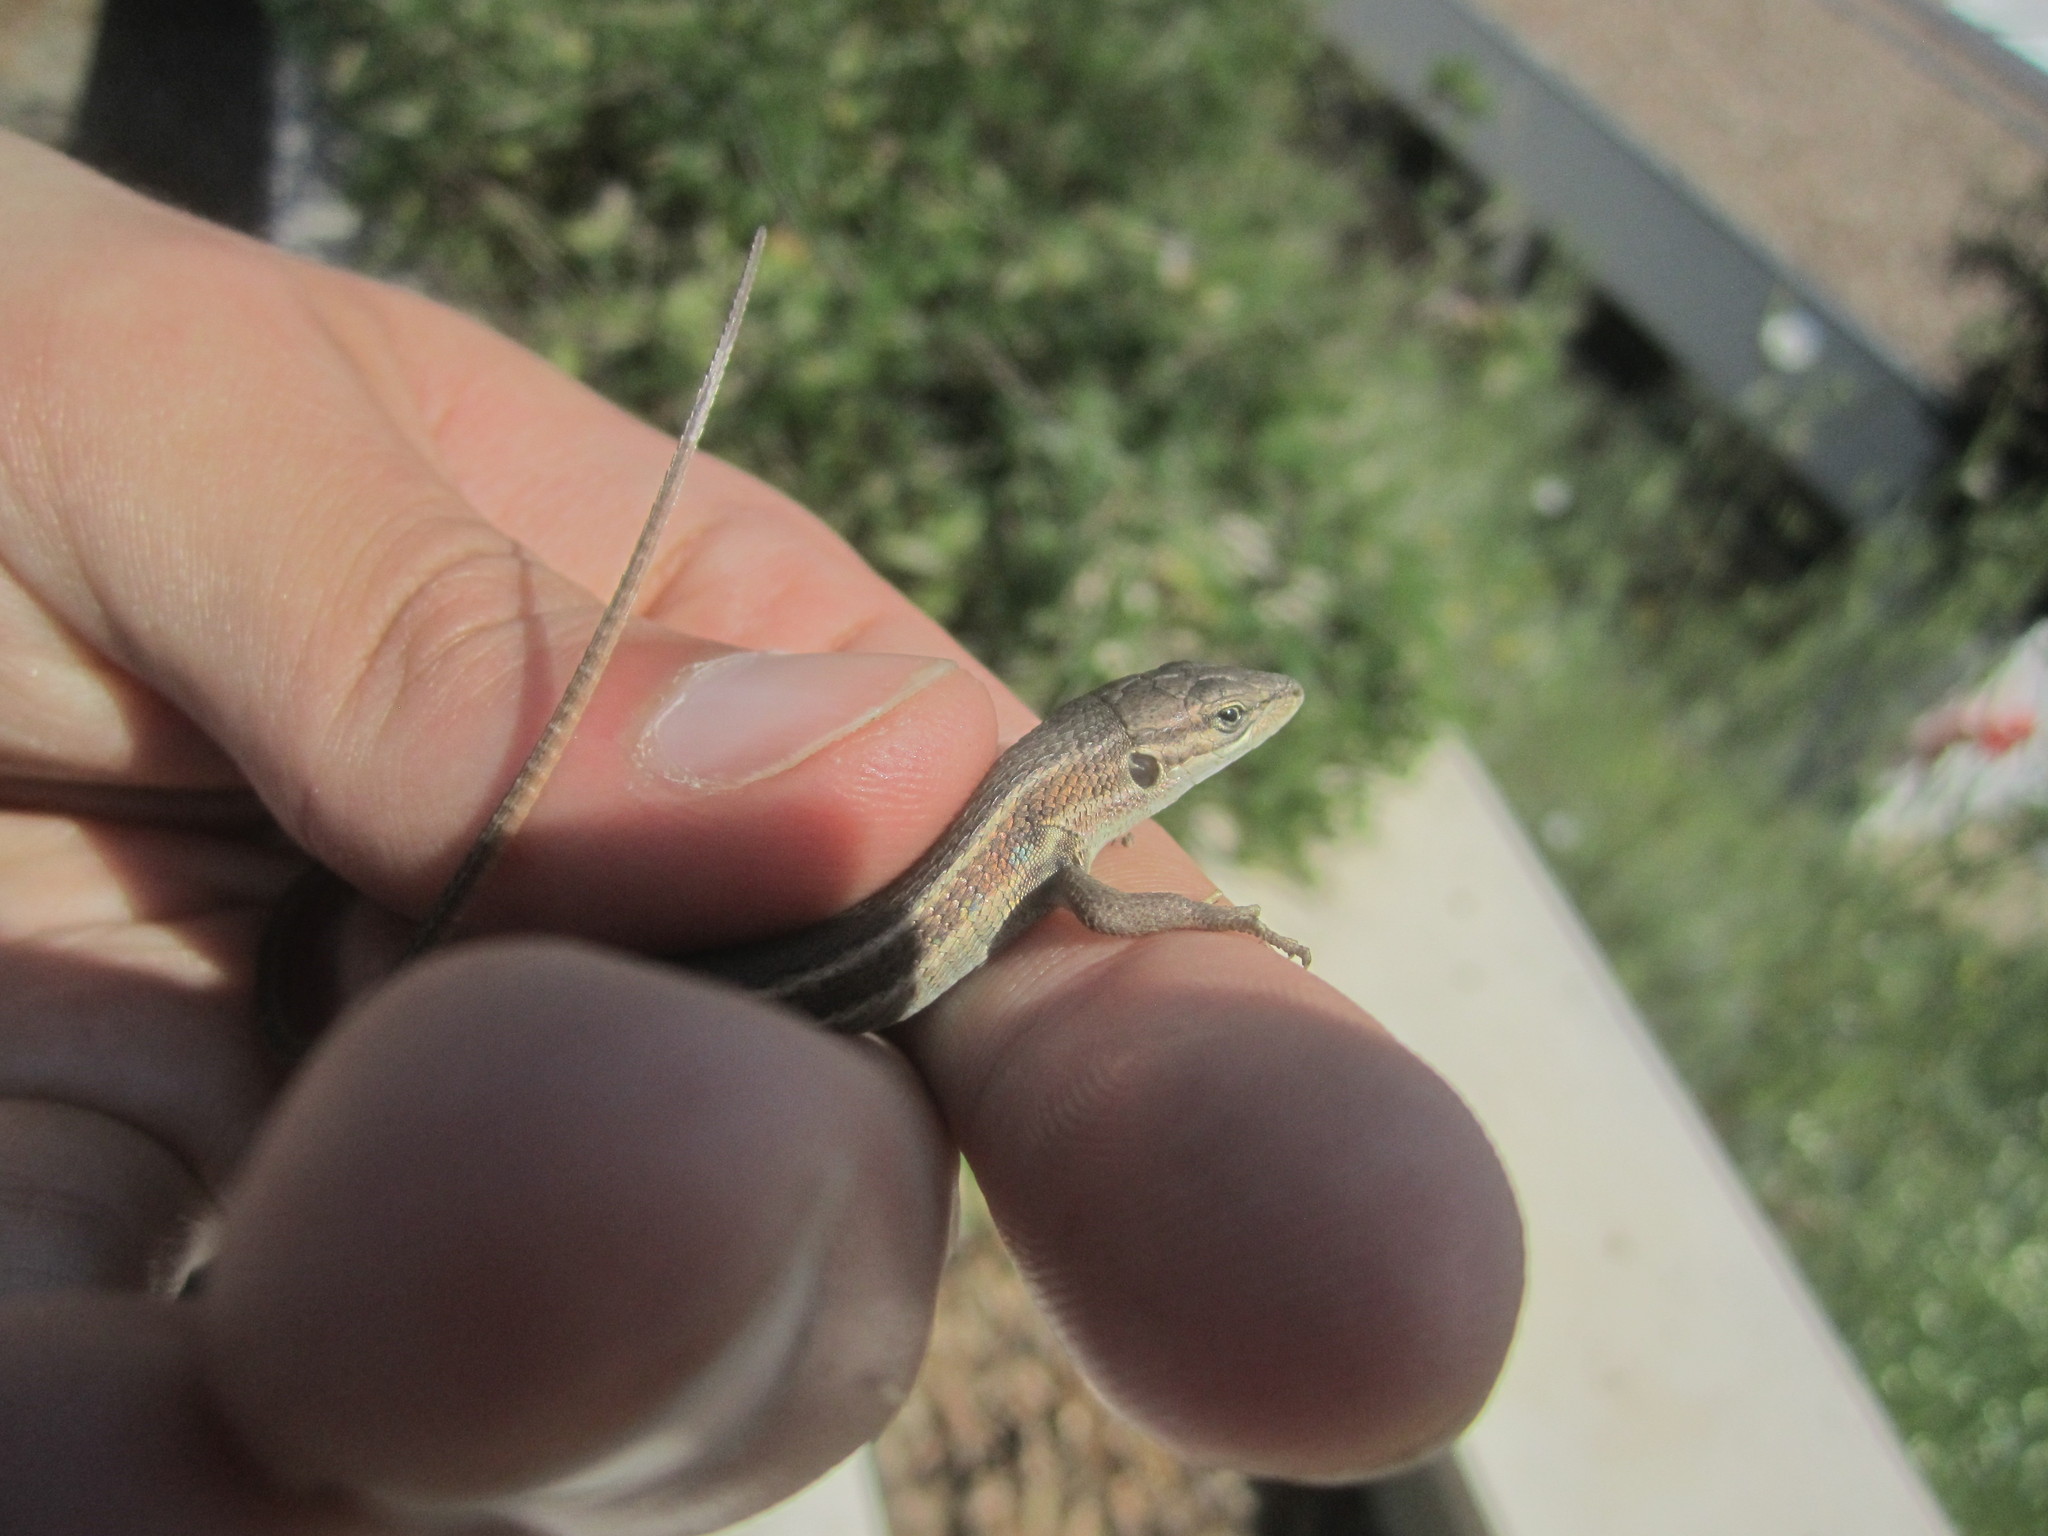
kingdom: Animalia
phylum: Chordata
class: Squamata
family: Lacertidae
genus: Psammodromus
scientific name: Psammodromus algirus
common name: Algerian psammodromus
